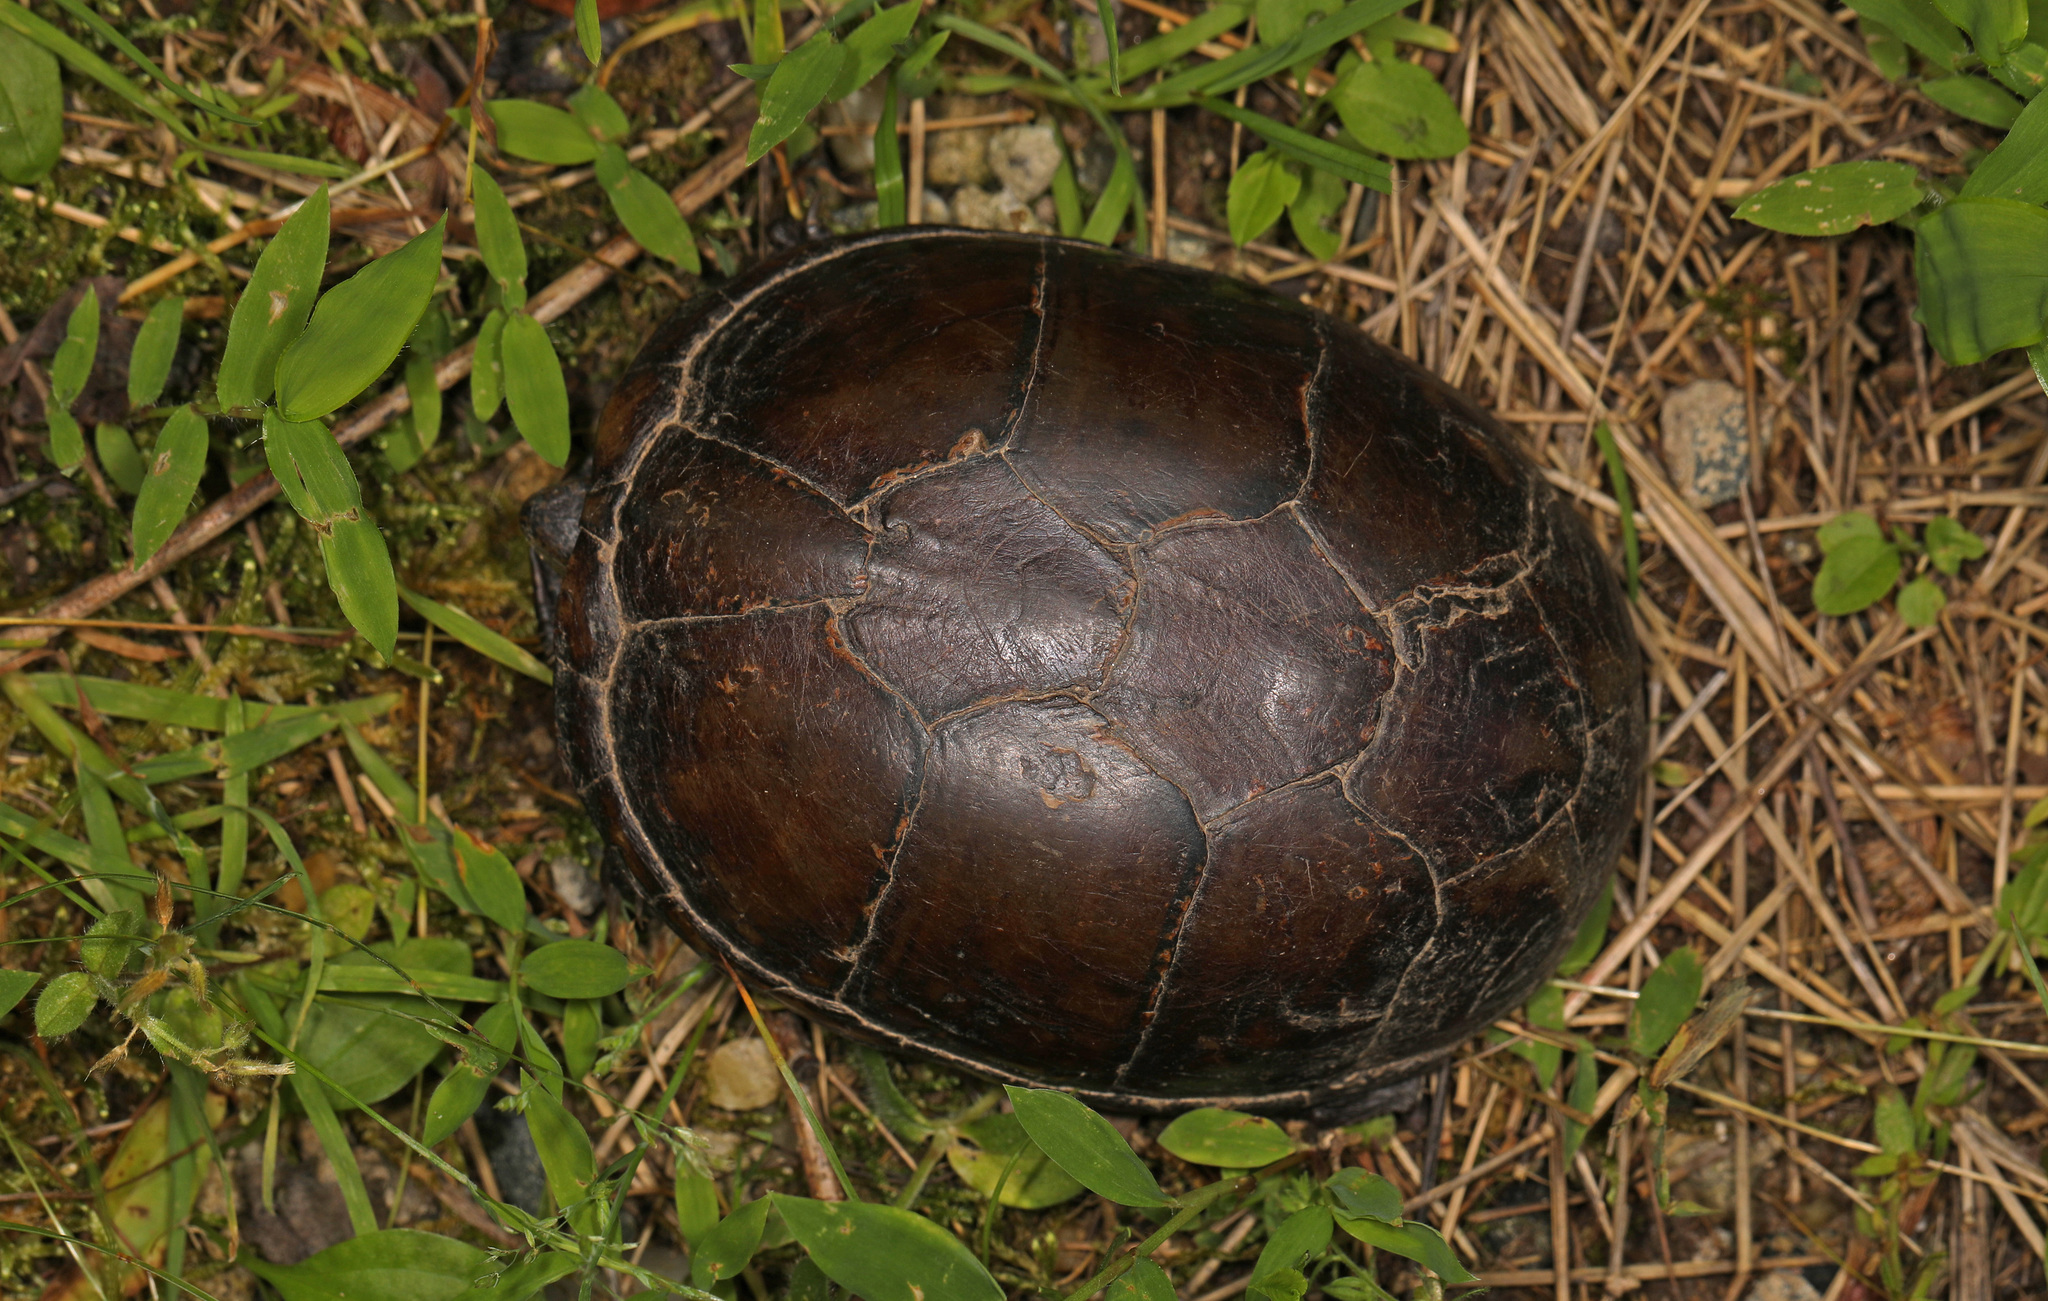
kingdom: Animalia
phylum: Chordata
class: Testudines
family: Kinosternidae
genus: Kinosternon
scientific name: Kinosternon subrubrum
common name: Eastern mud turtle
